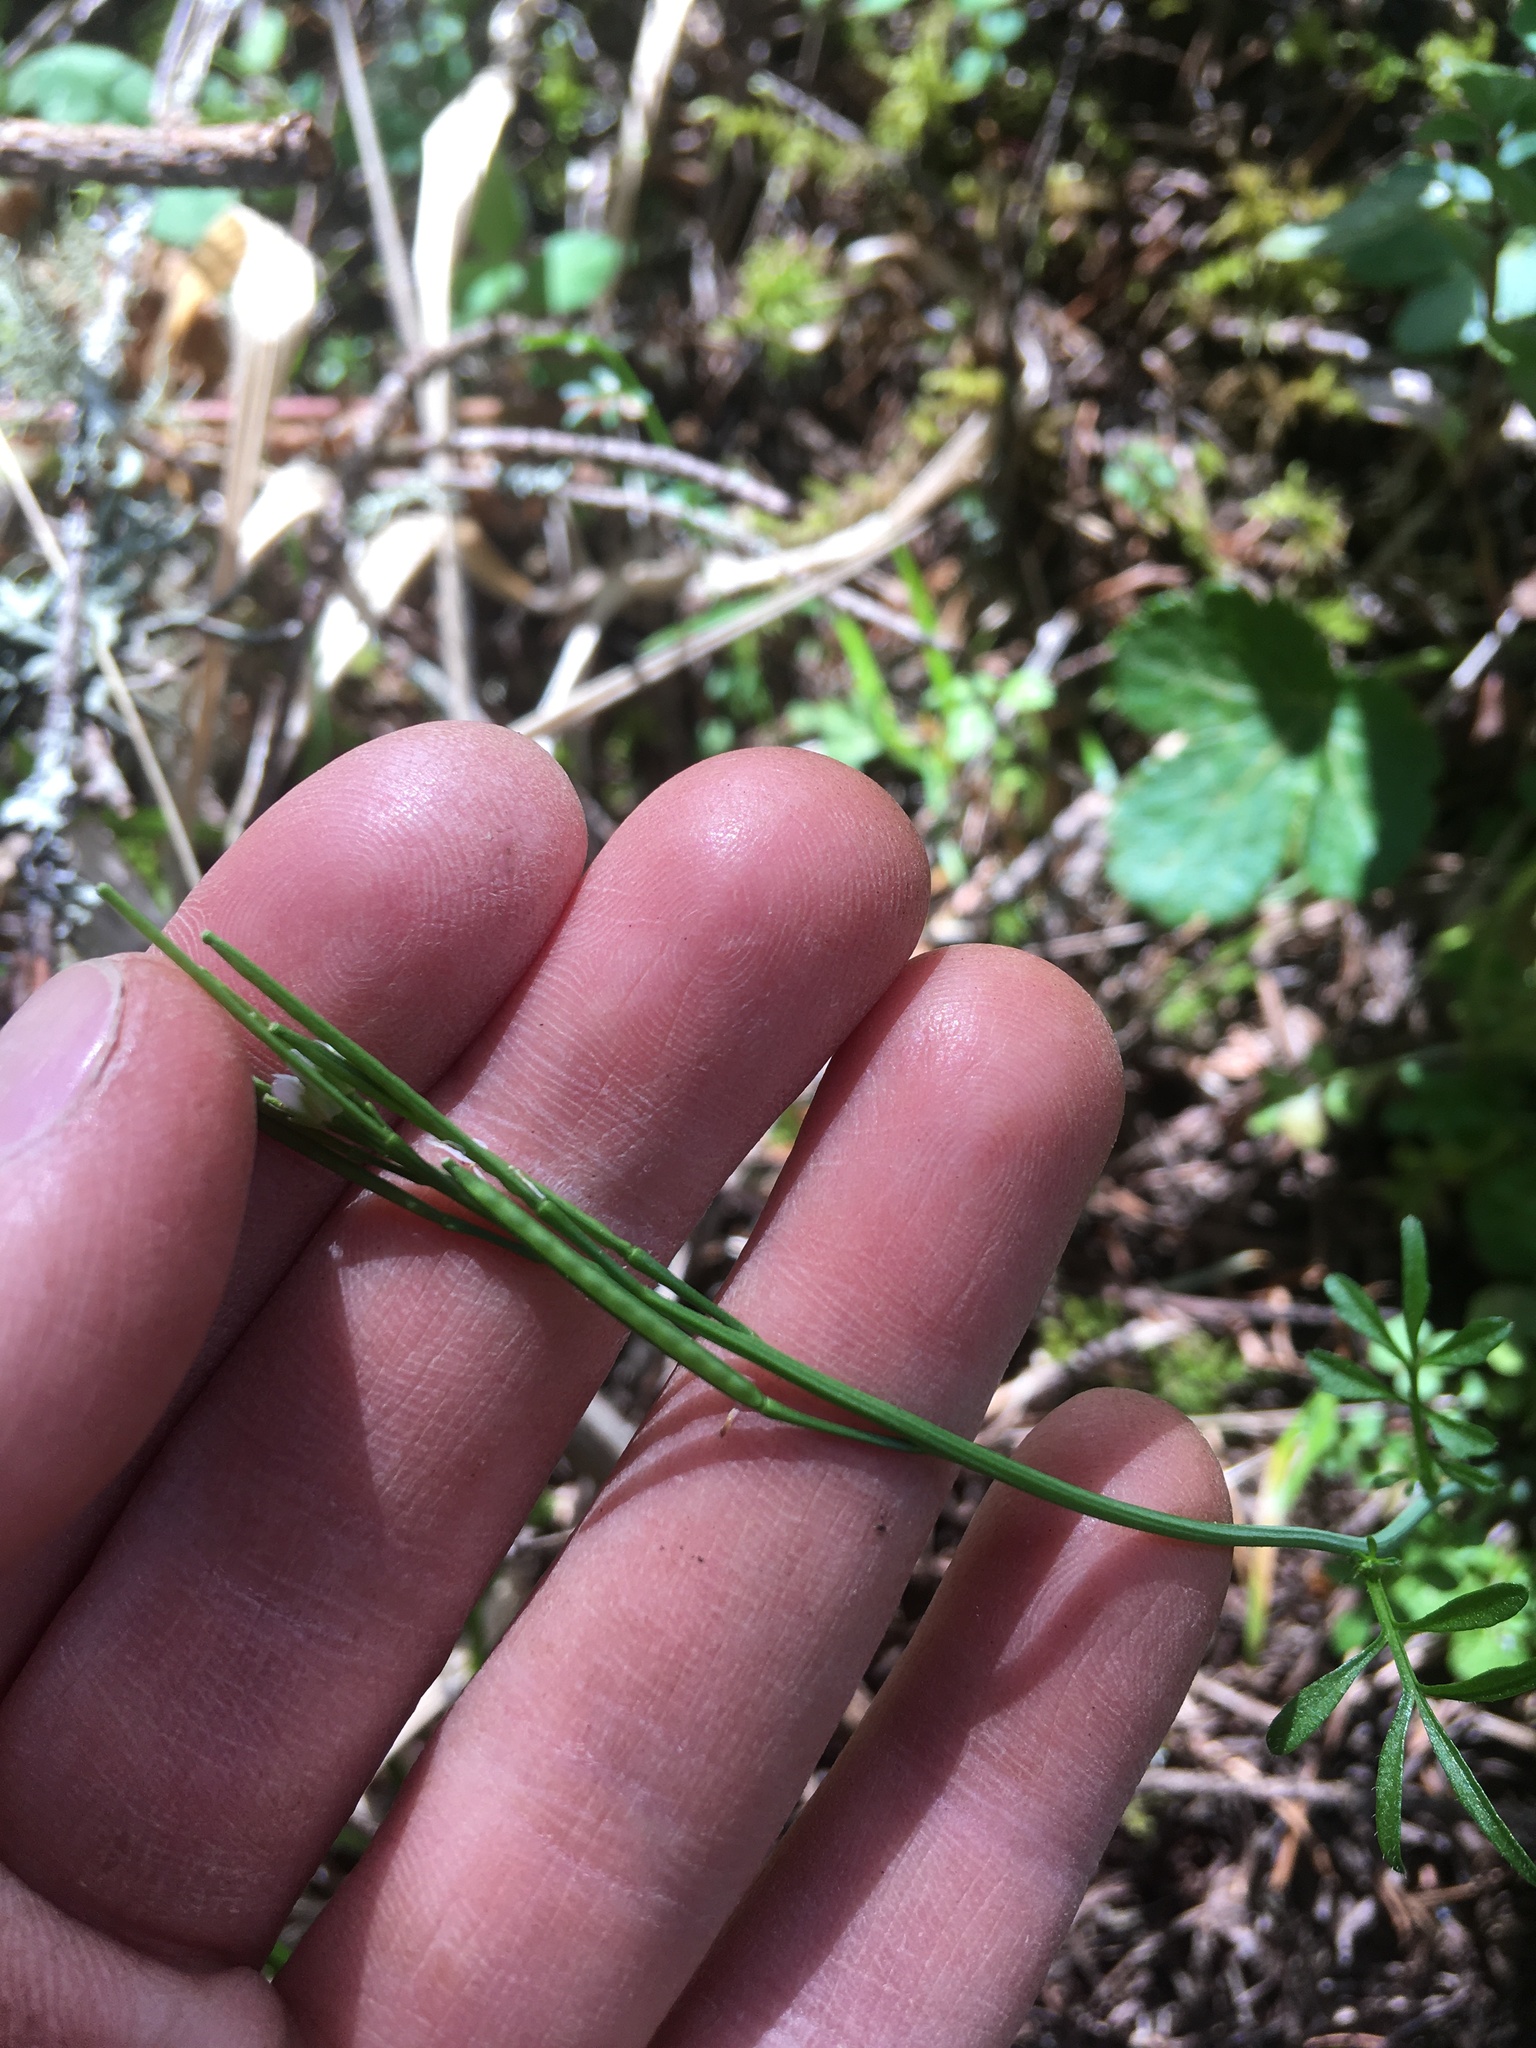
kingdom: Plantae
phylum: Tracheophyta
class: Magnoliopsida
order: Brassicales
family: Brassicaceae
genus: Cardamine
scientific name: Cardamine hirsuta
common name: Hairy bittercress
